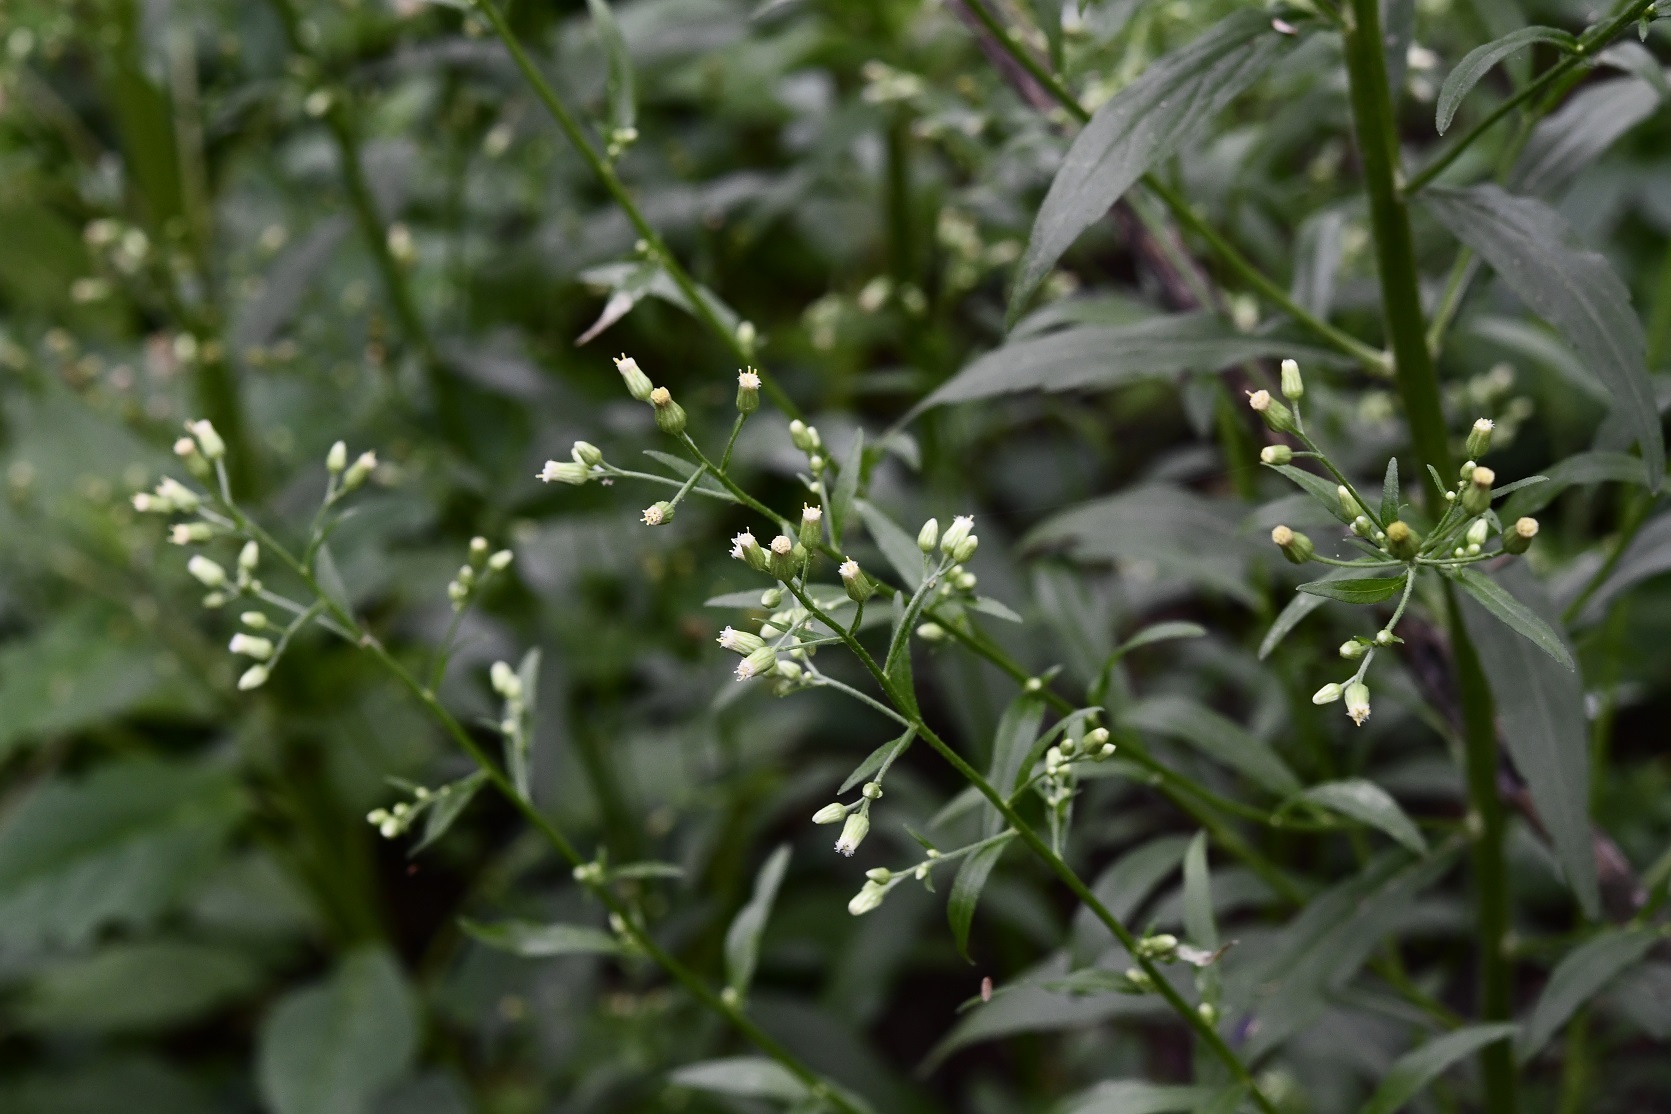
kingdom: Plantae
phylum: Tracheophyta
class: Magnoliopsida
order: Asterales
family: Asteraceae
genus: Erigeron
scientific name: Erigeron canadensis
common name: Canadian fleabane
